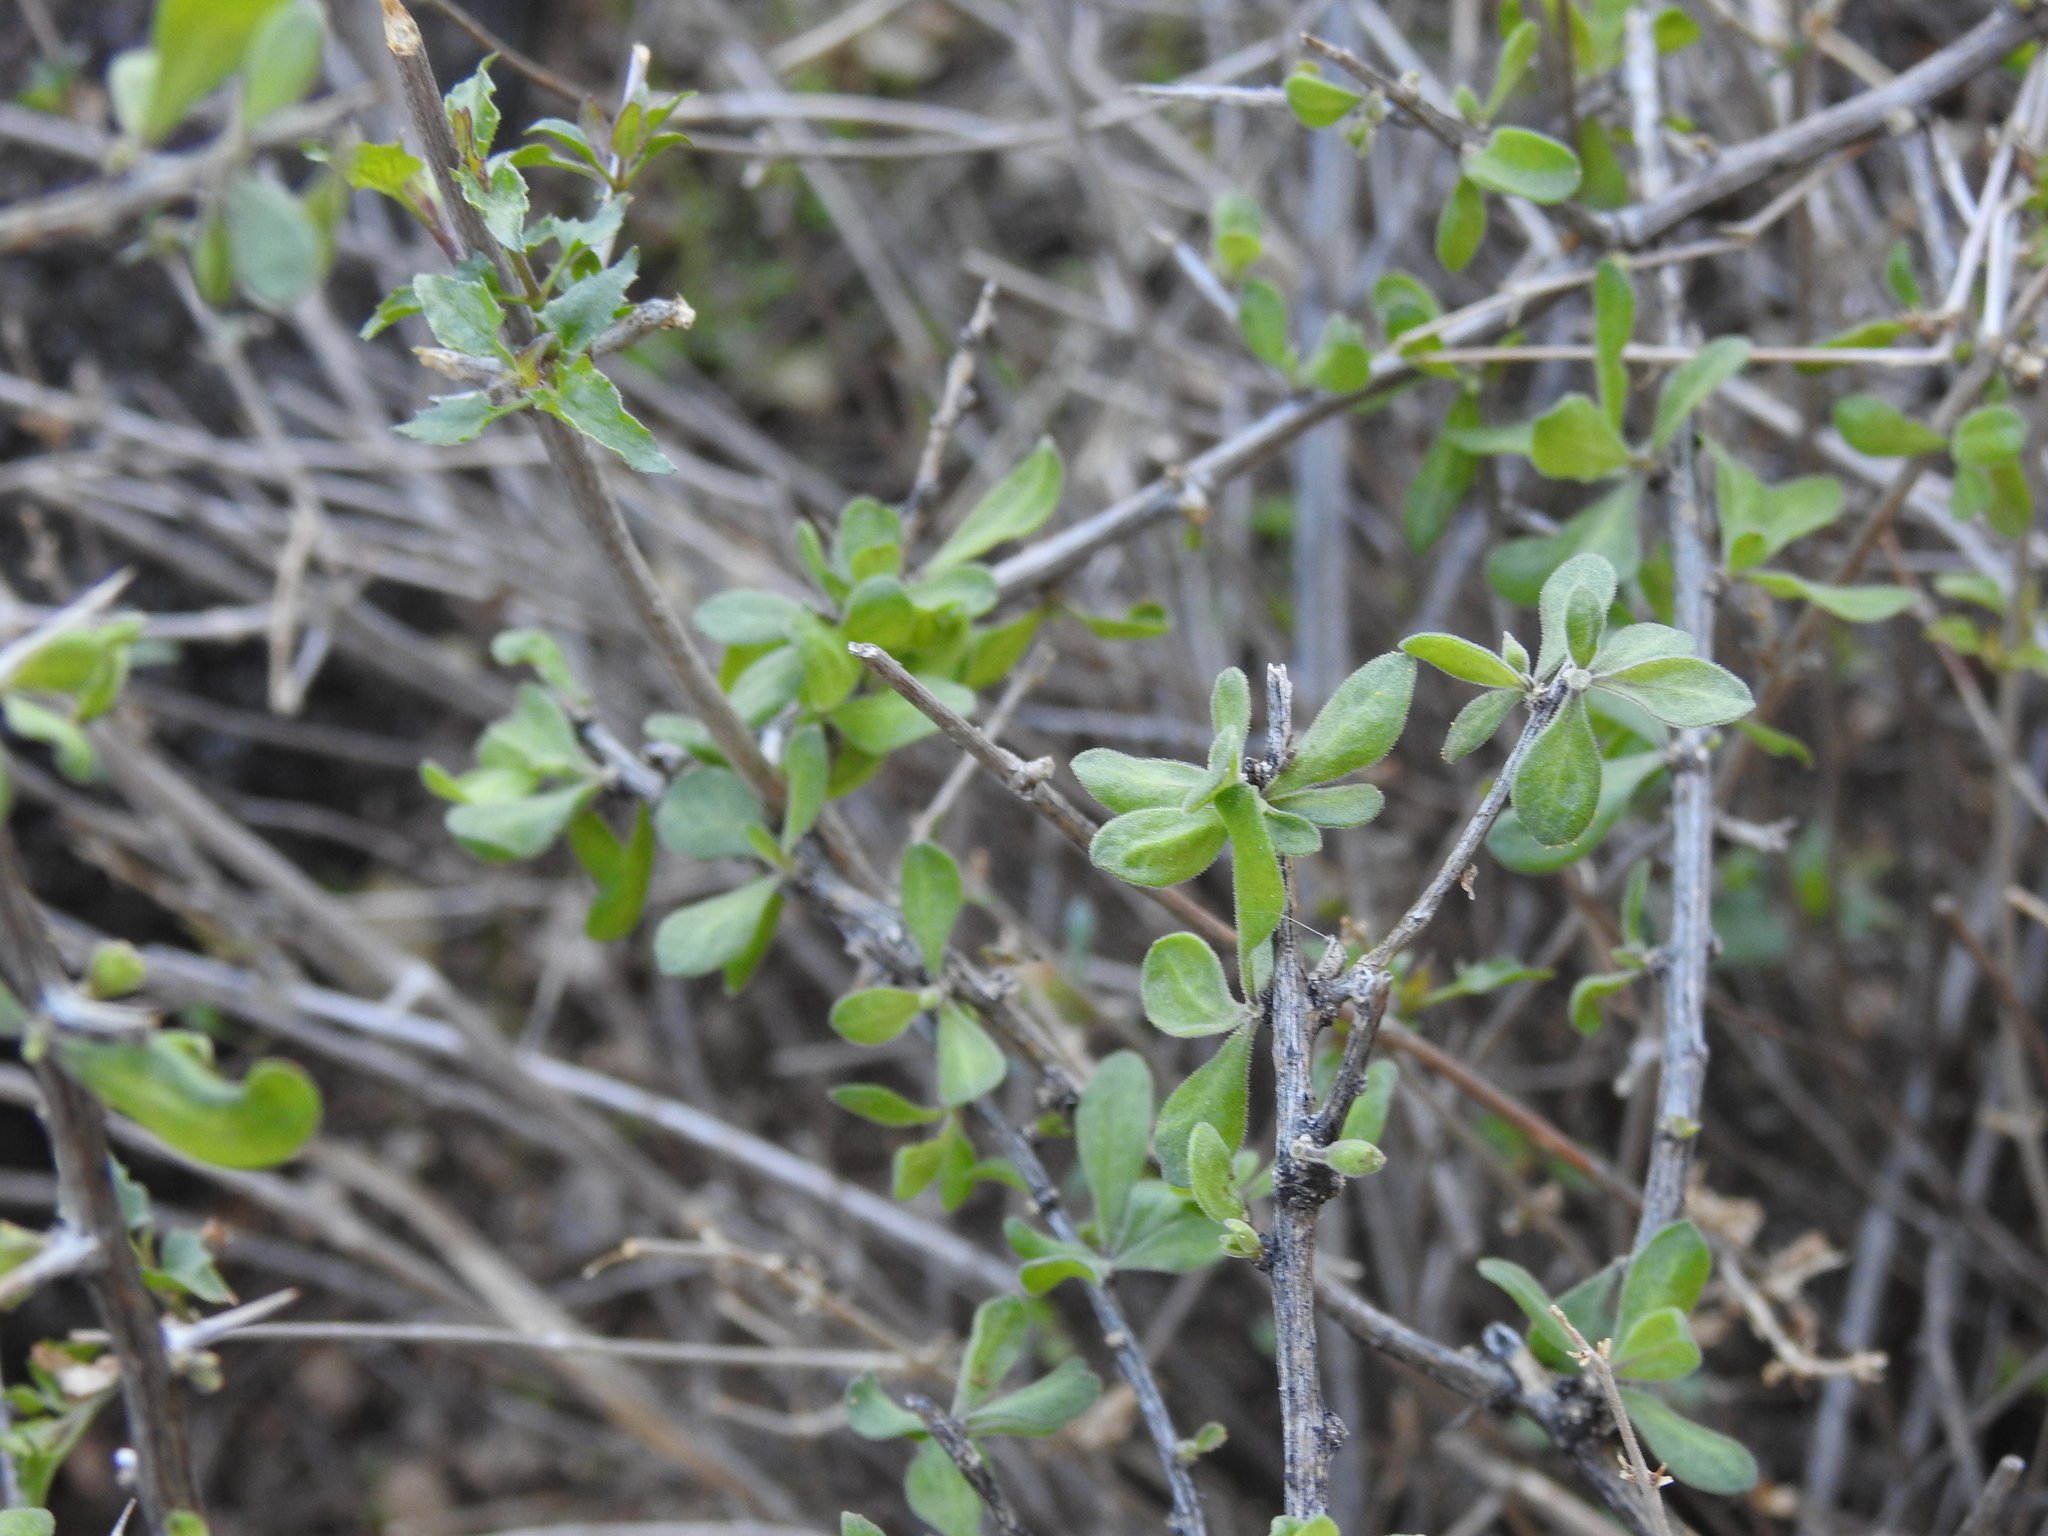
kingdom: Plantae
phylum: Tracheophyta
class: Magnoliopsida
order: Solanales
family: Solanaceae
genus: Lycium
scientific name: Lycium exsertum
